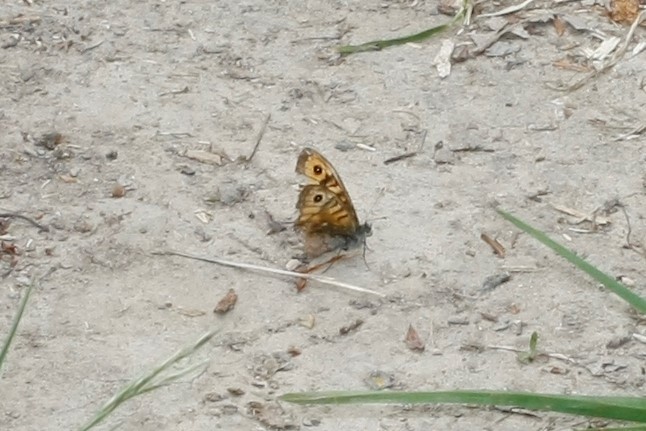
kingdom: Animalia
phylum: Arthropoda
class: Insecta
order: Lepidoptera
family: Nymphalidae
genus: Pararge
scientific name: Pararge Lasiommata megera
